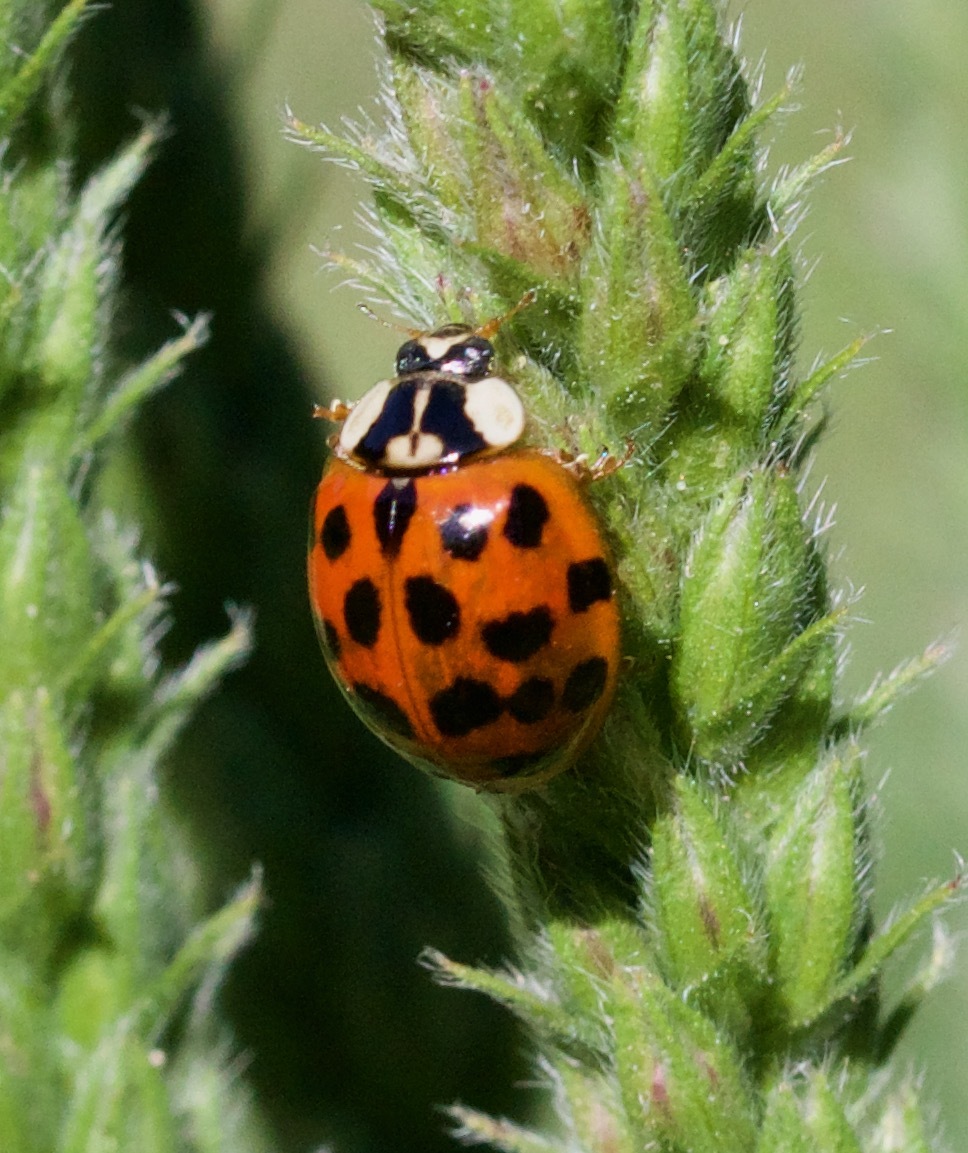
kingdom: Animalia
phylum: Arthropoda
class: Insecta
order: Coleoptera
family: Coccinellidae
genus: Harmonia
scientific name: Harmonia axyridis
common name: Harlequin ladybird
